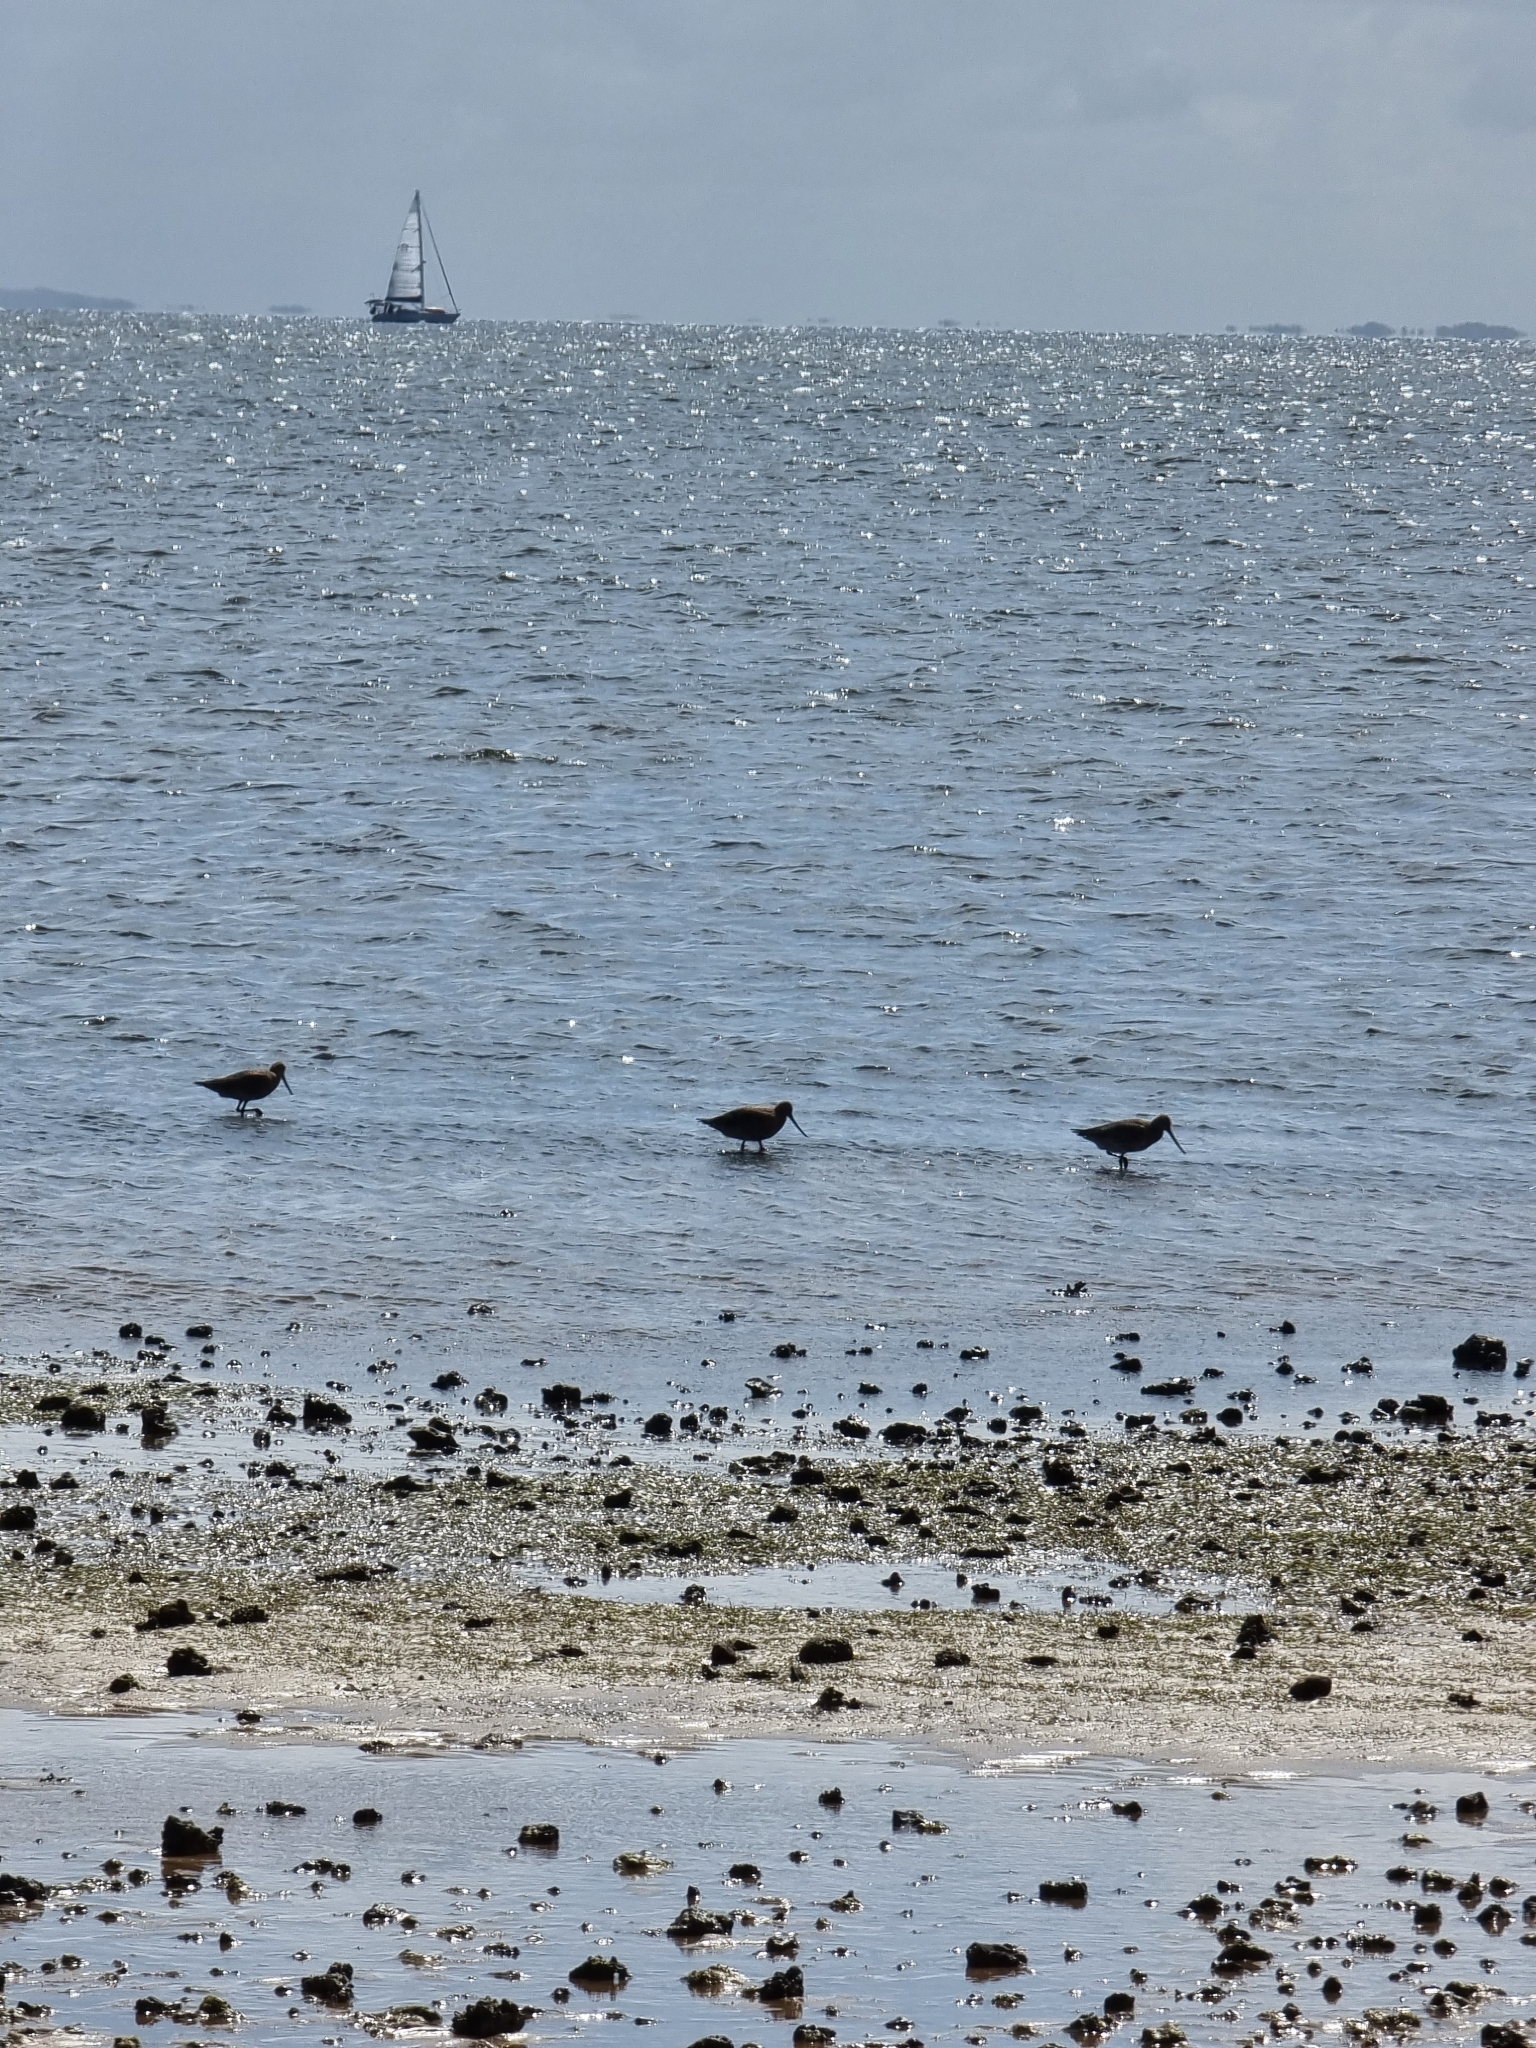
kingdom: Animalia
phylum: Chordata
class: Aves
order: Charadriiformes
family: Scolopacidae
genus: Limosa
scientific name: Limosa lapponica
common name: Bar-tailed godwit
